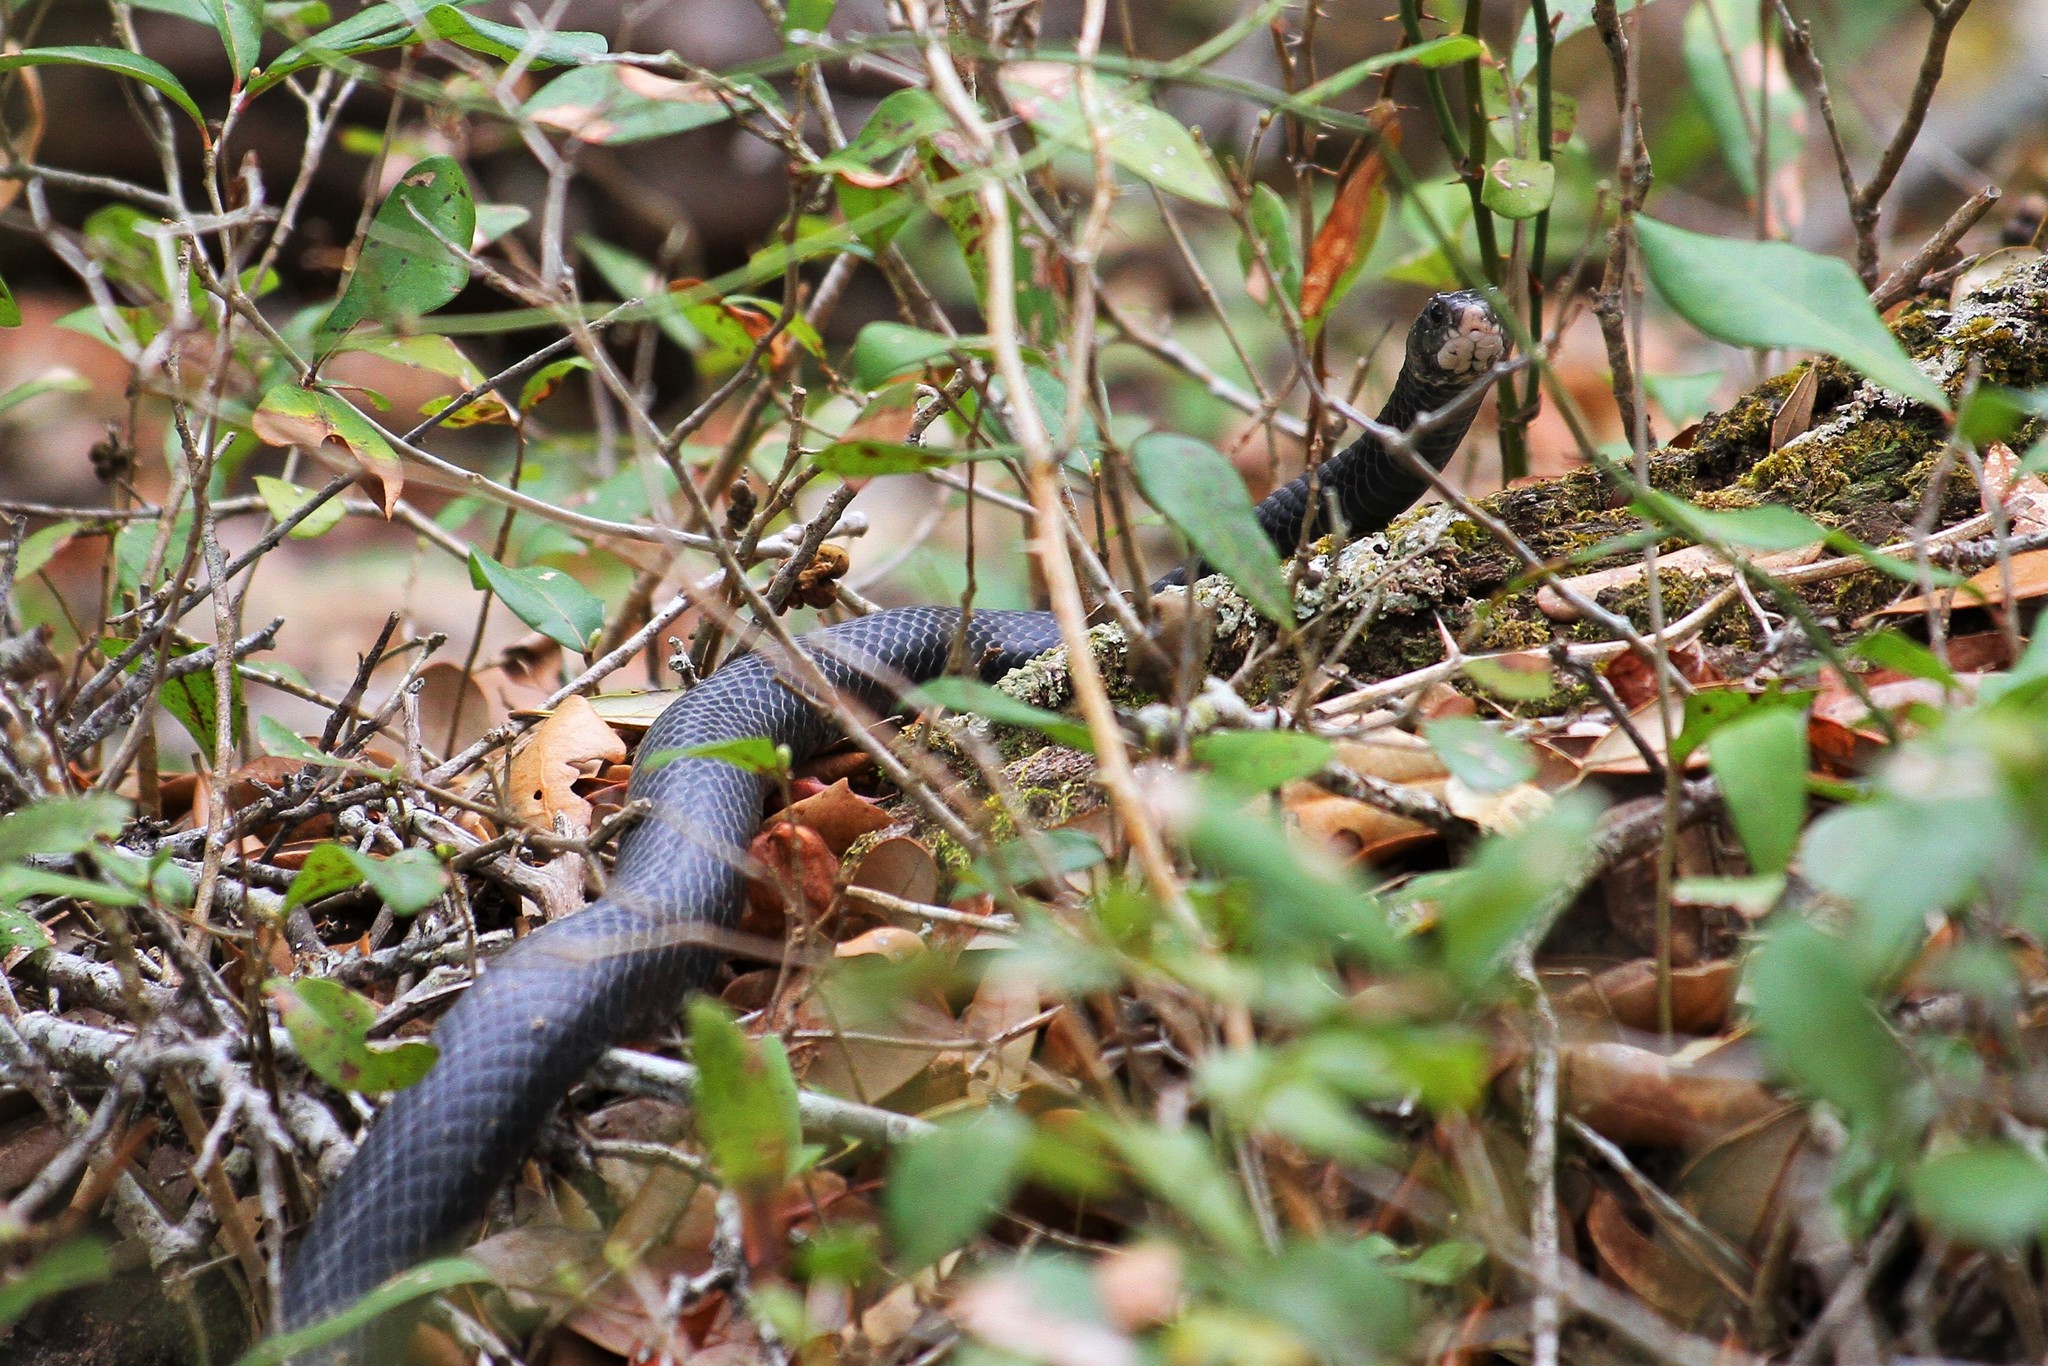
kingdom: Animalia
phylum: Chordata
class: Squamata
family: Colubridae
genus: Coluber
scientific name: Coluber constrictor
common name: Eastern racer
